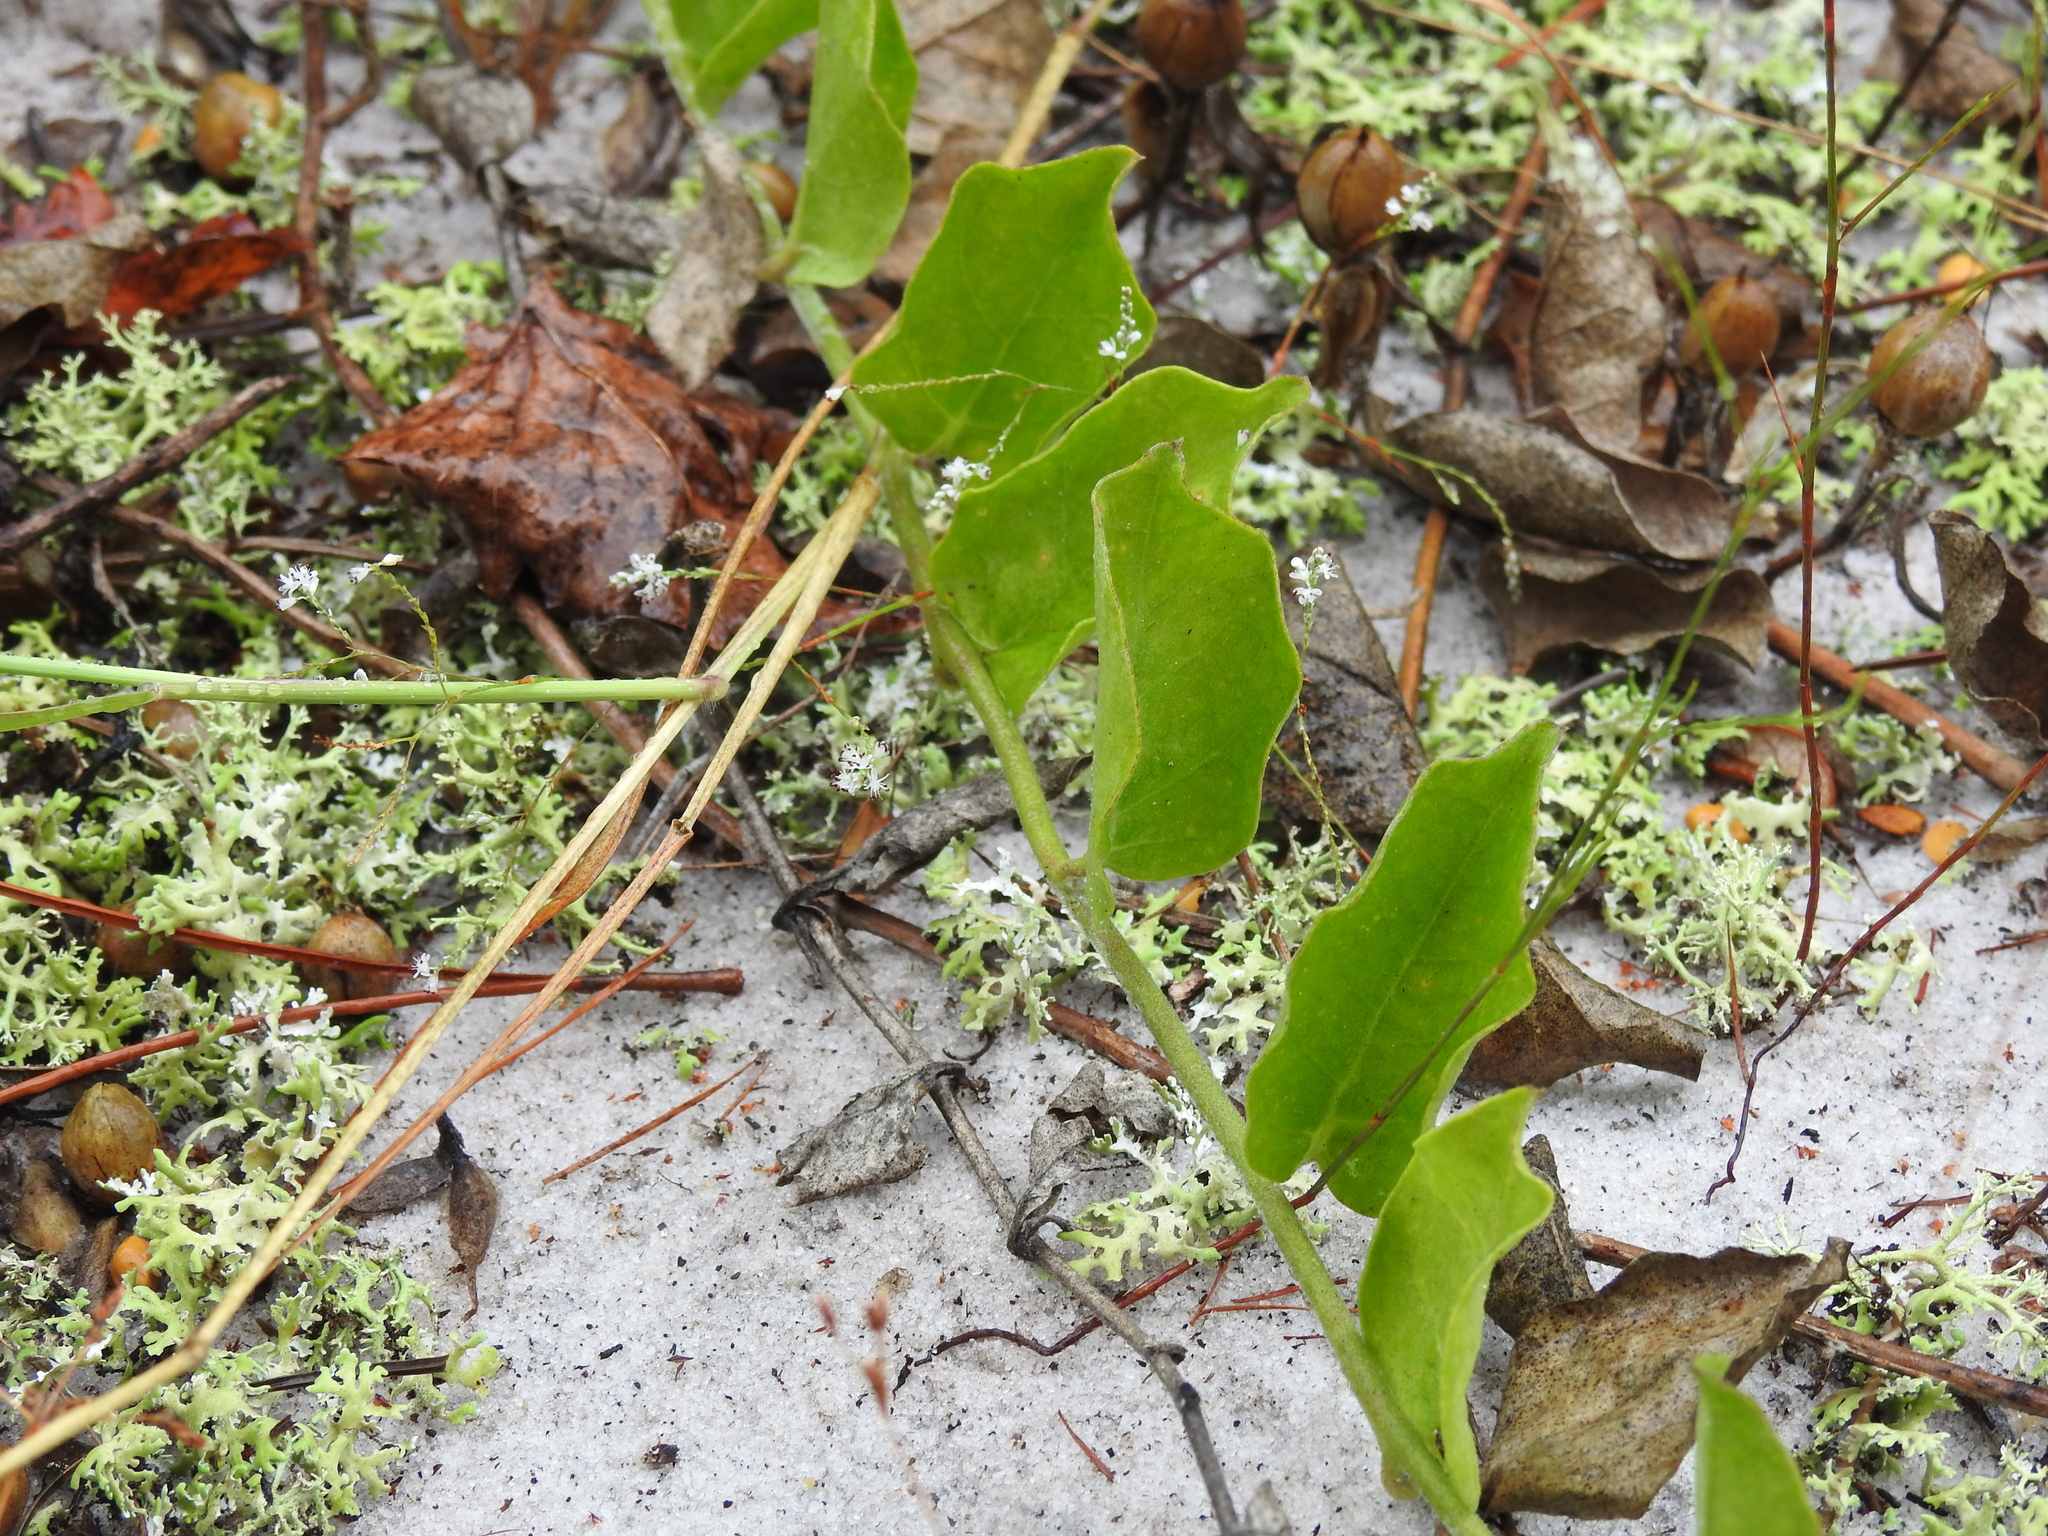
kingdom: Plantae
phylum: Tracheophyta
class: Magnoliopsida
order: Solanales
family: Convolvulaceae
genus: Bonamia
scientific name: Bonamia grandiflora
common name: Florida bonamia
